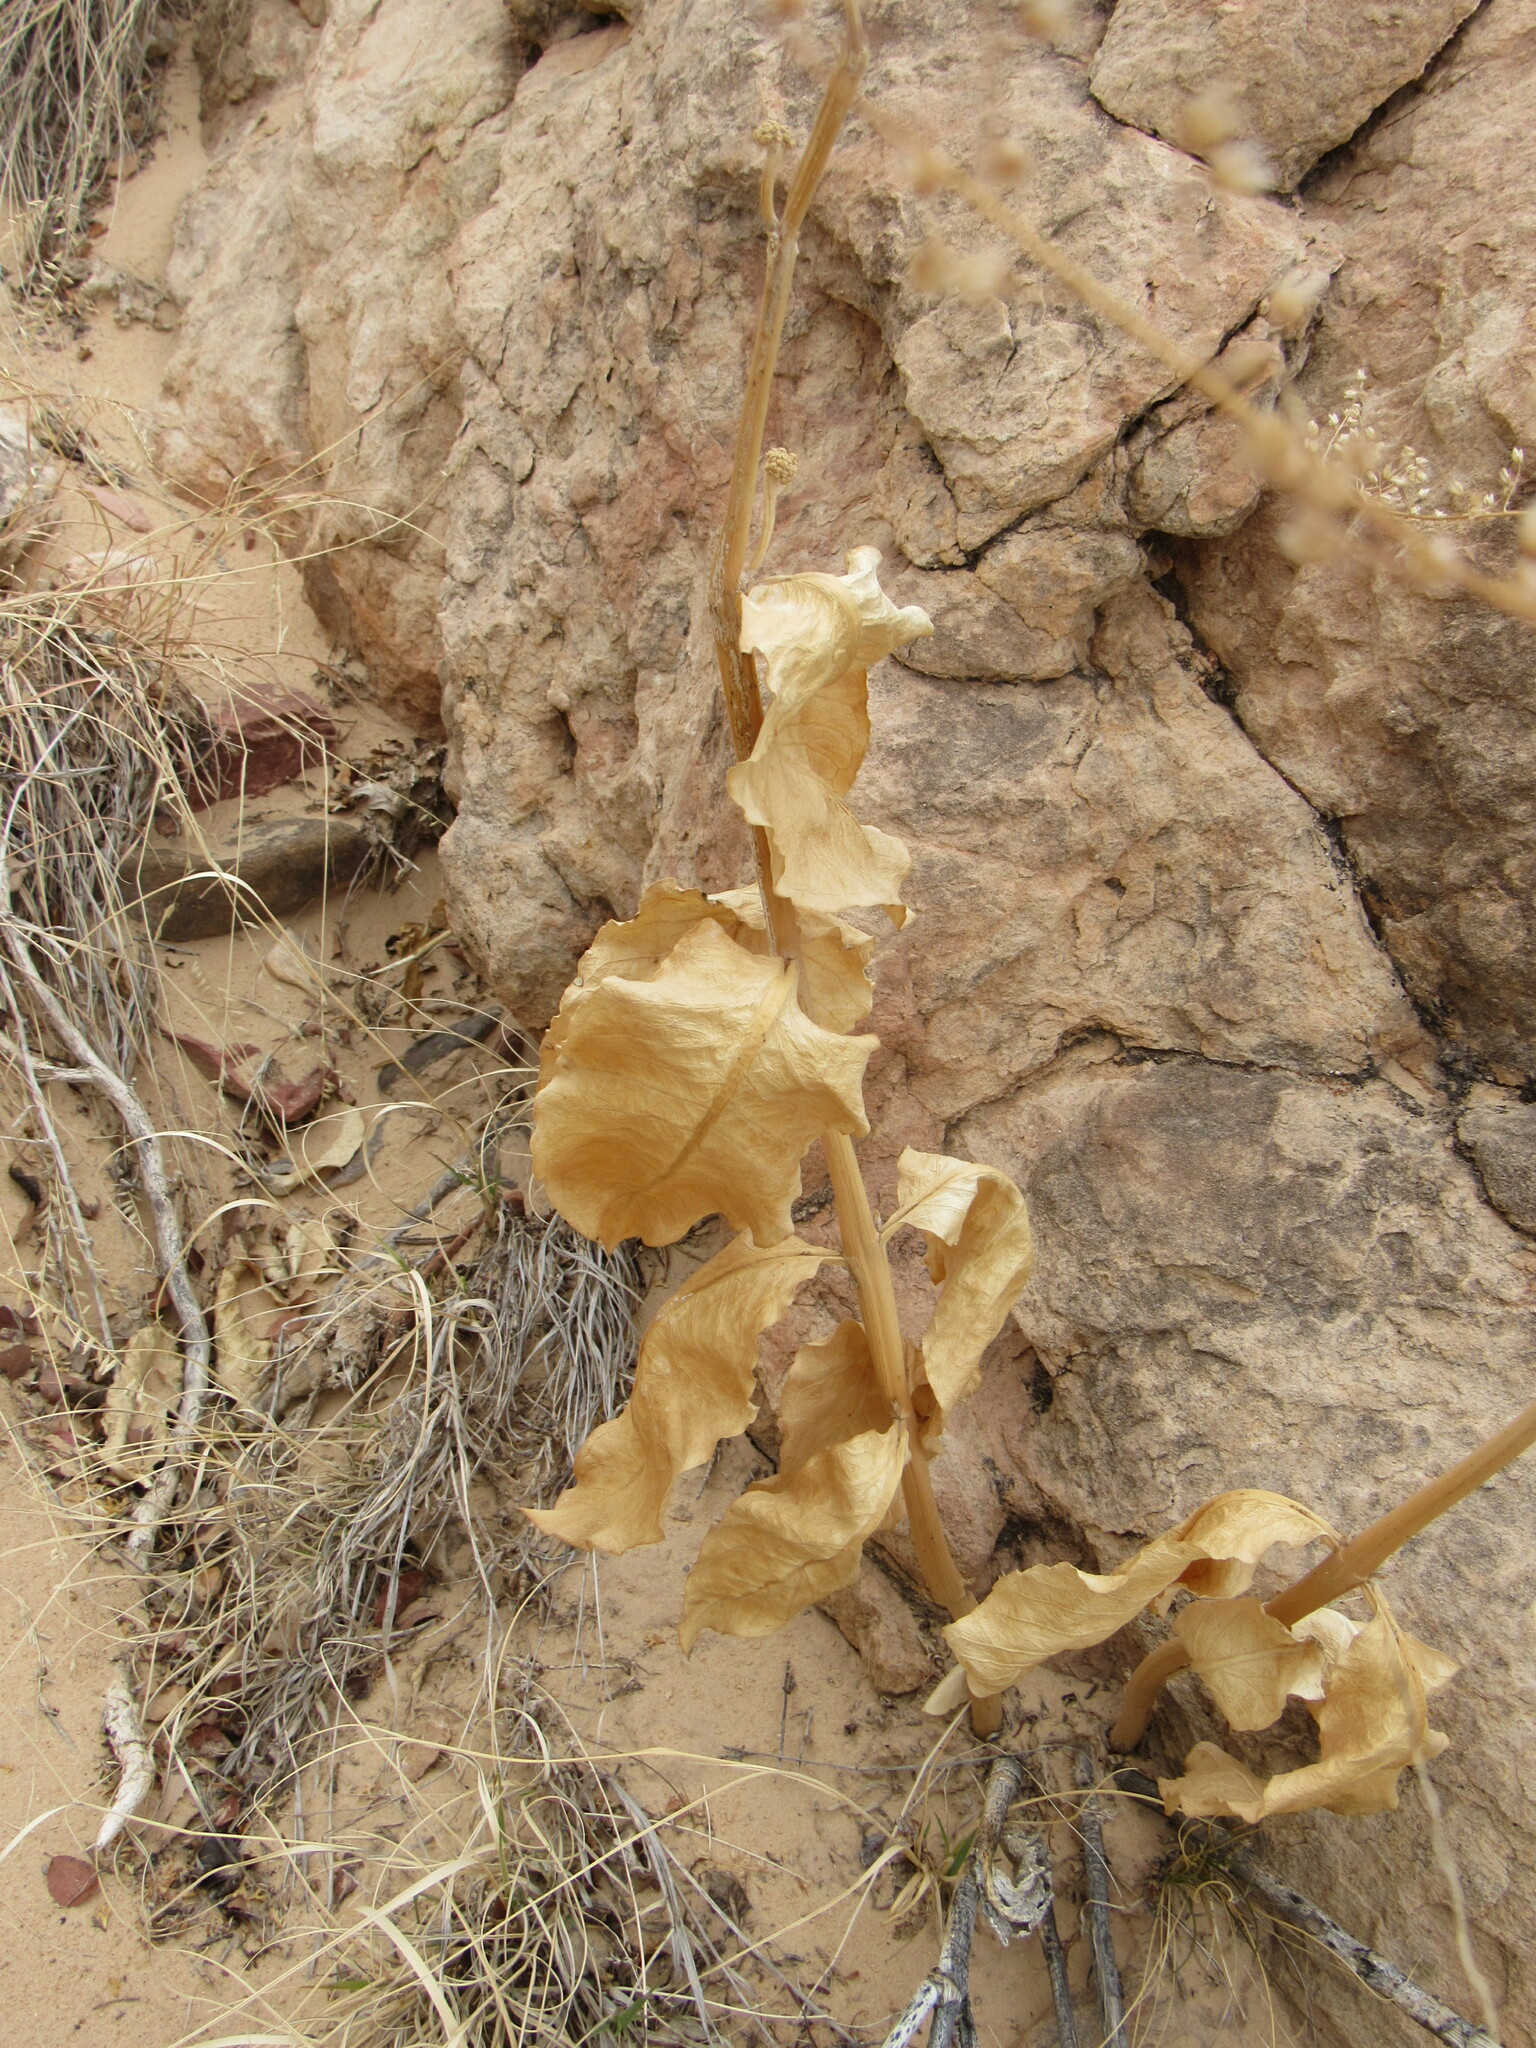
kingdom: Plantae
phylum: Tracheophyta
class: Magnoliopsida
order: Gentianales
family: Apocynaceae
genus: Asclepias
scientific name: Asclepias latifolia
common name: Broadleaf milkweed
